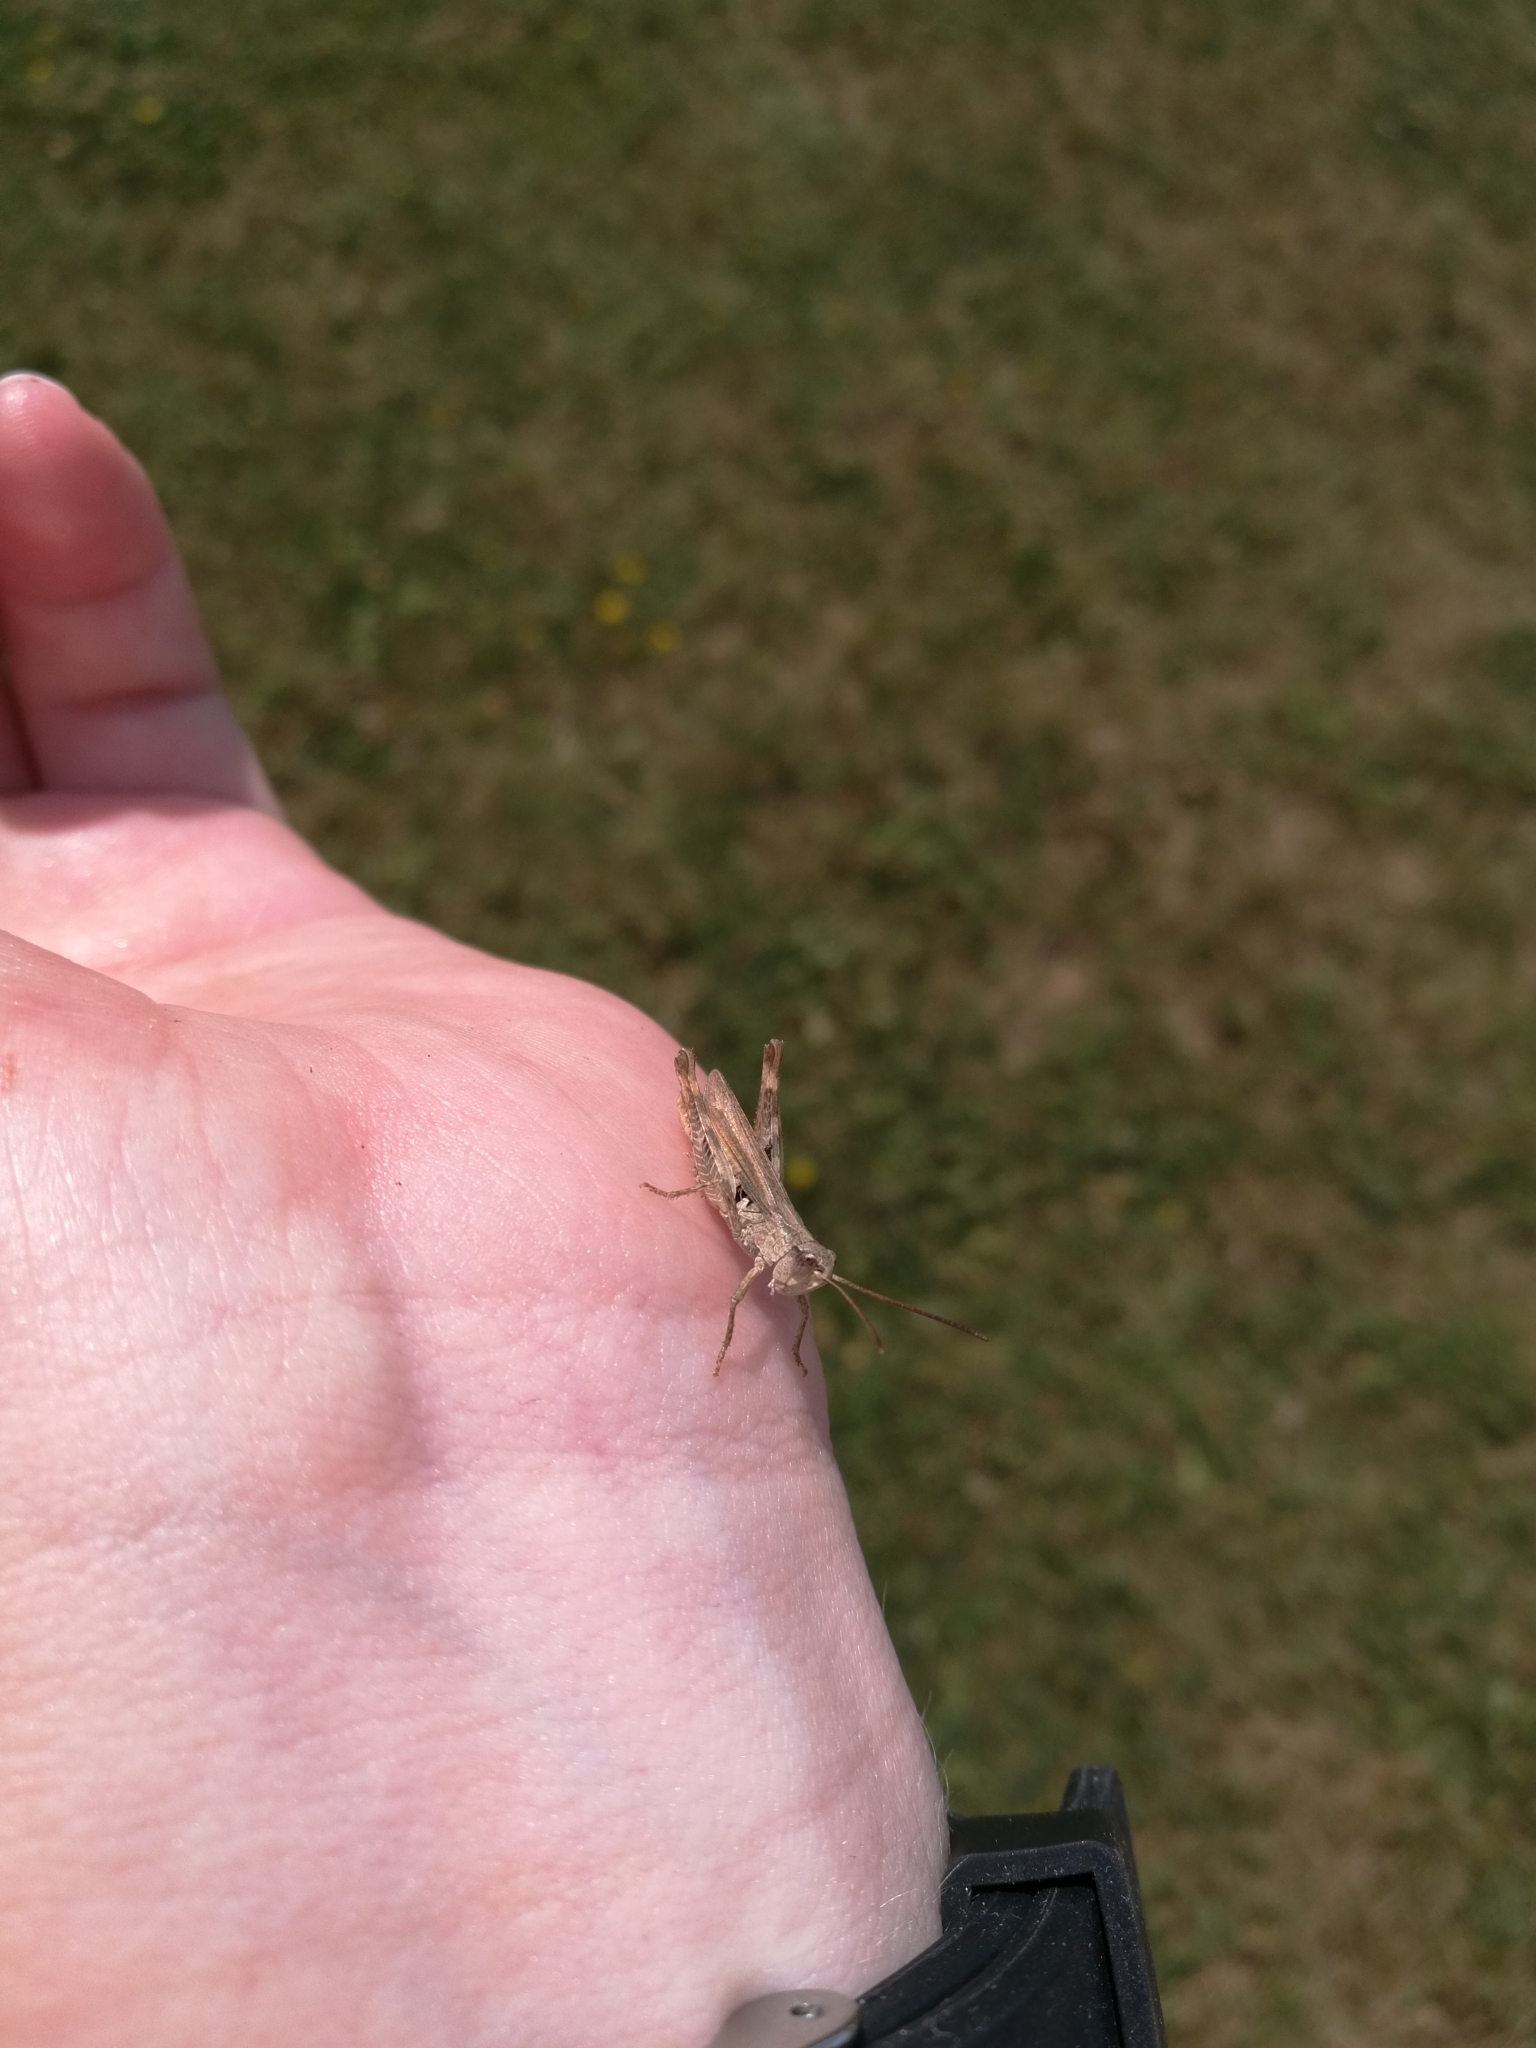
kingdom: Animalia
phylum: Arthropoda
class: Insecta
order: Orthoptera
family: Acrididae
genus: Chorthippus
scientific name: Chorthippus apricarius
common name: Upland field grasshopper
